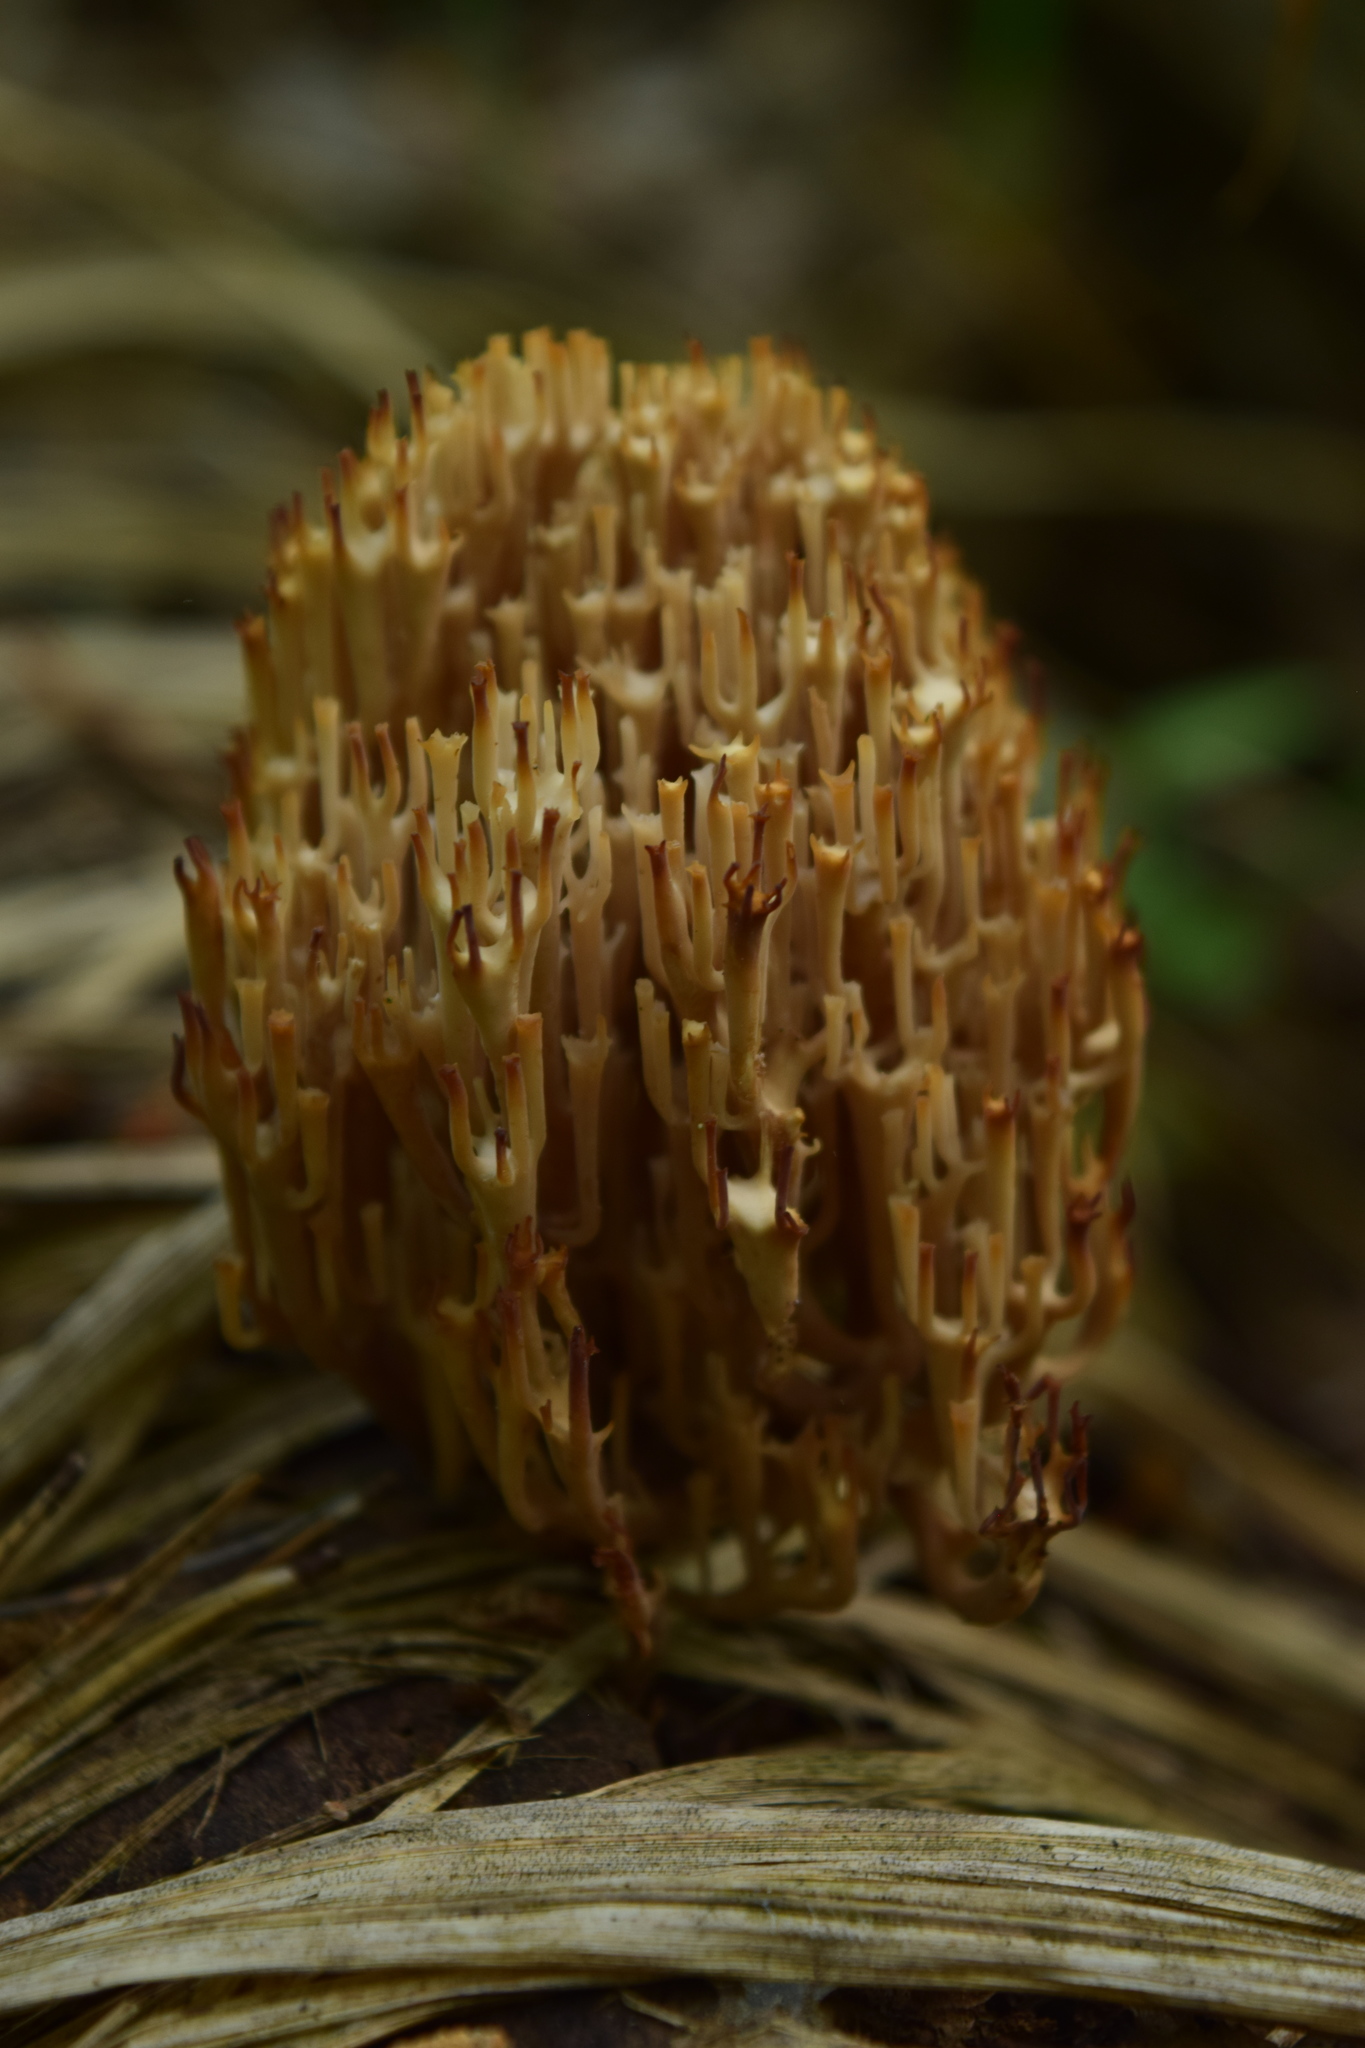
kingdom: Fungi
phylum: Basidiomycota
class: Agaricomycetes
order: Russulales
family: Auriscalpiaceae
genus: Artomyces
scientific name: Artomyces pyxidatus
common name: Crown-tipped coral fungus
